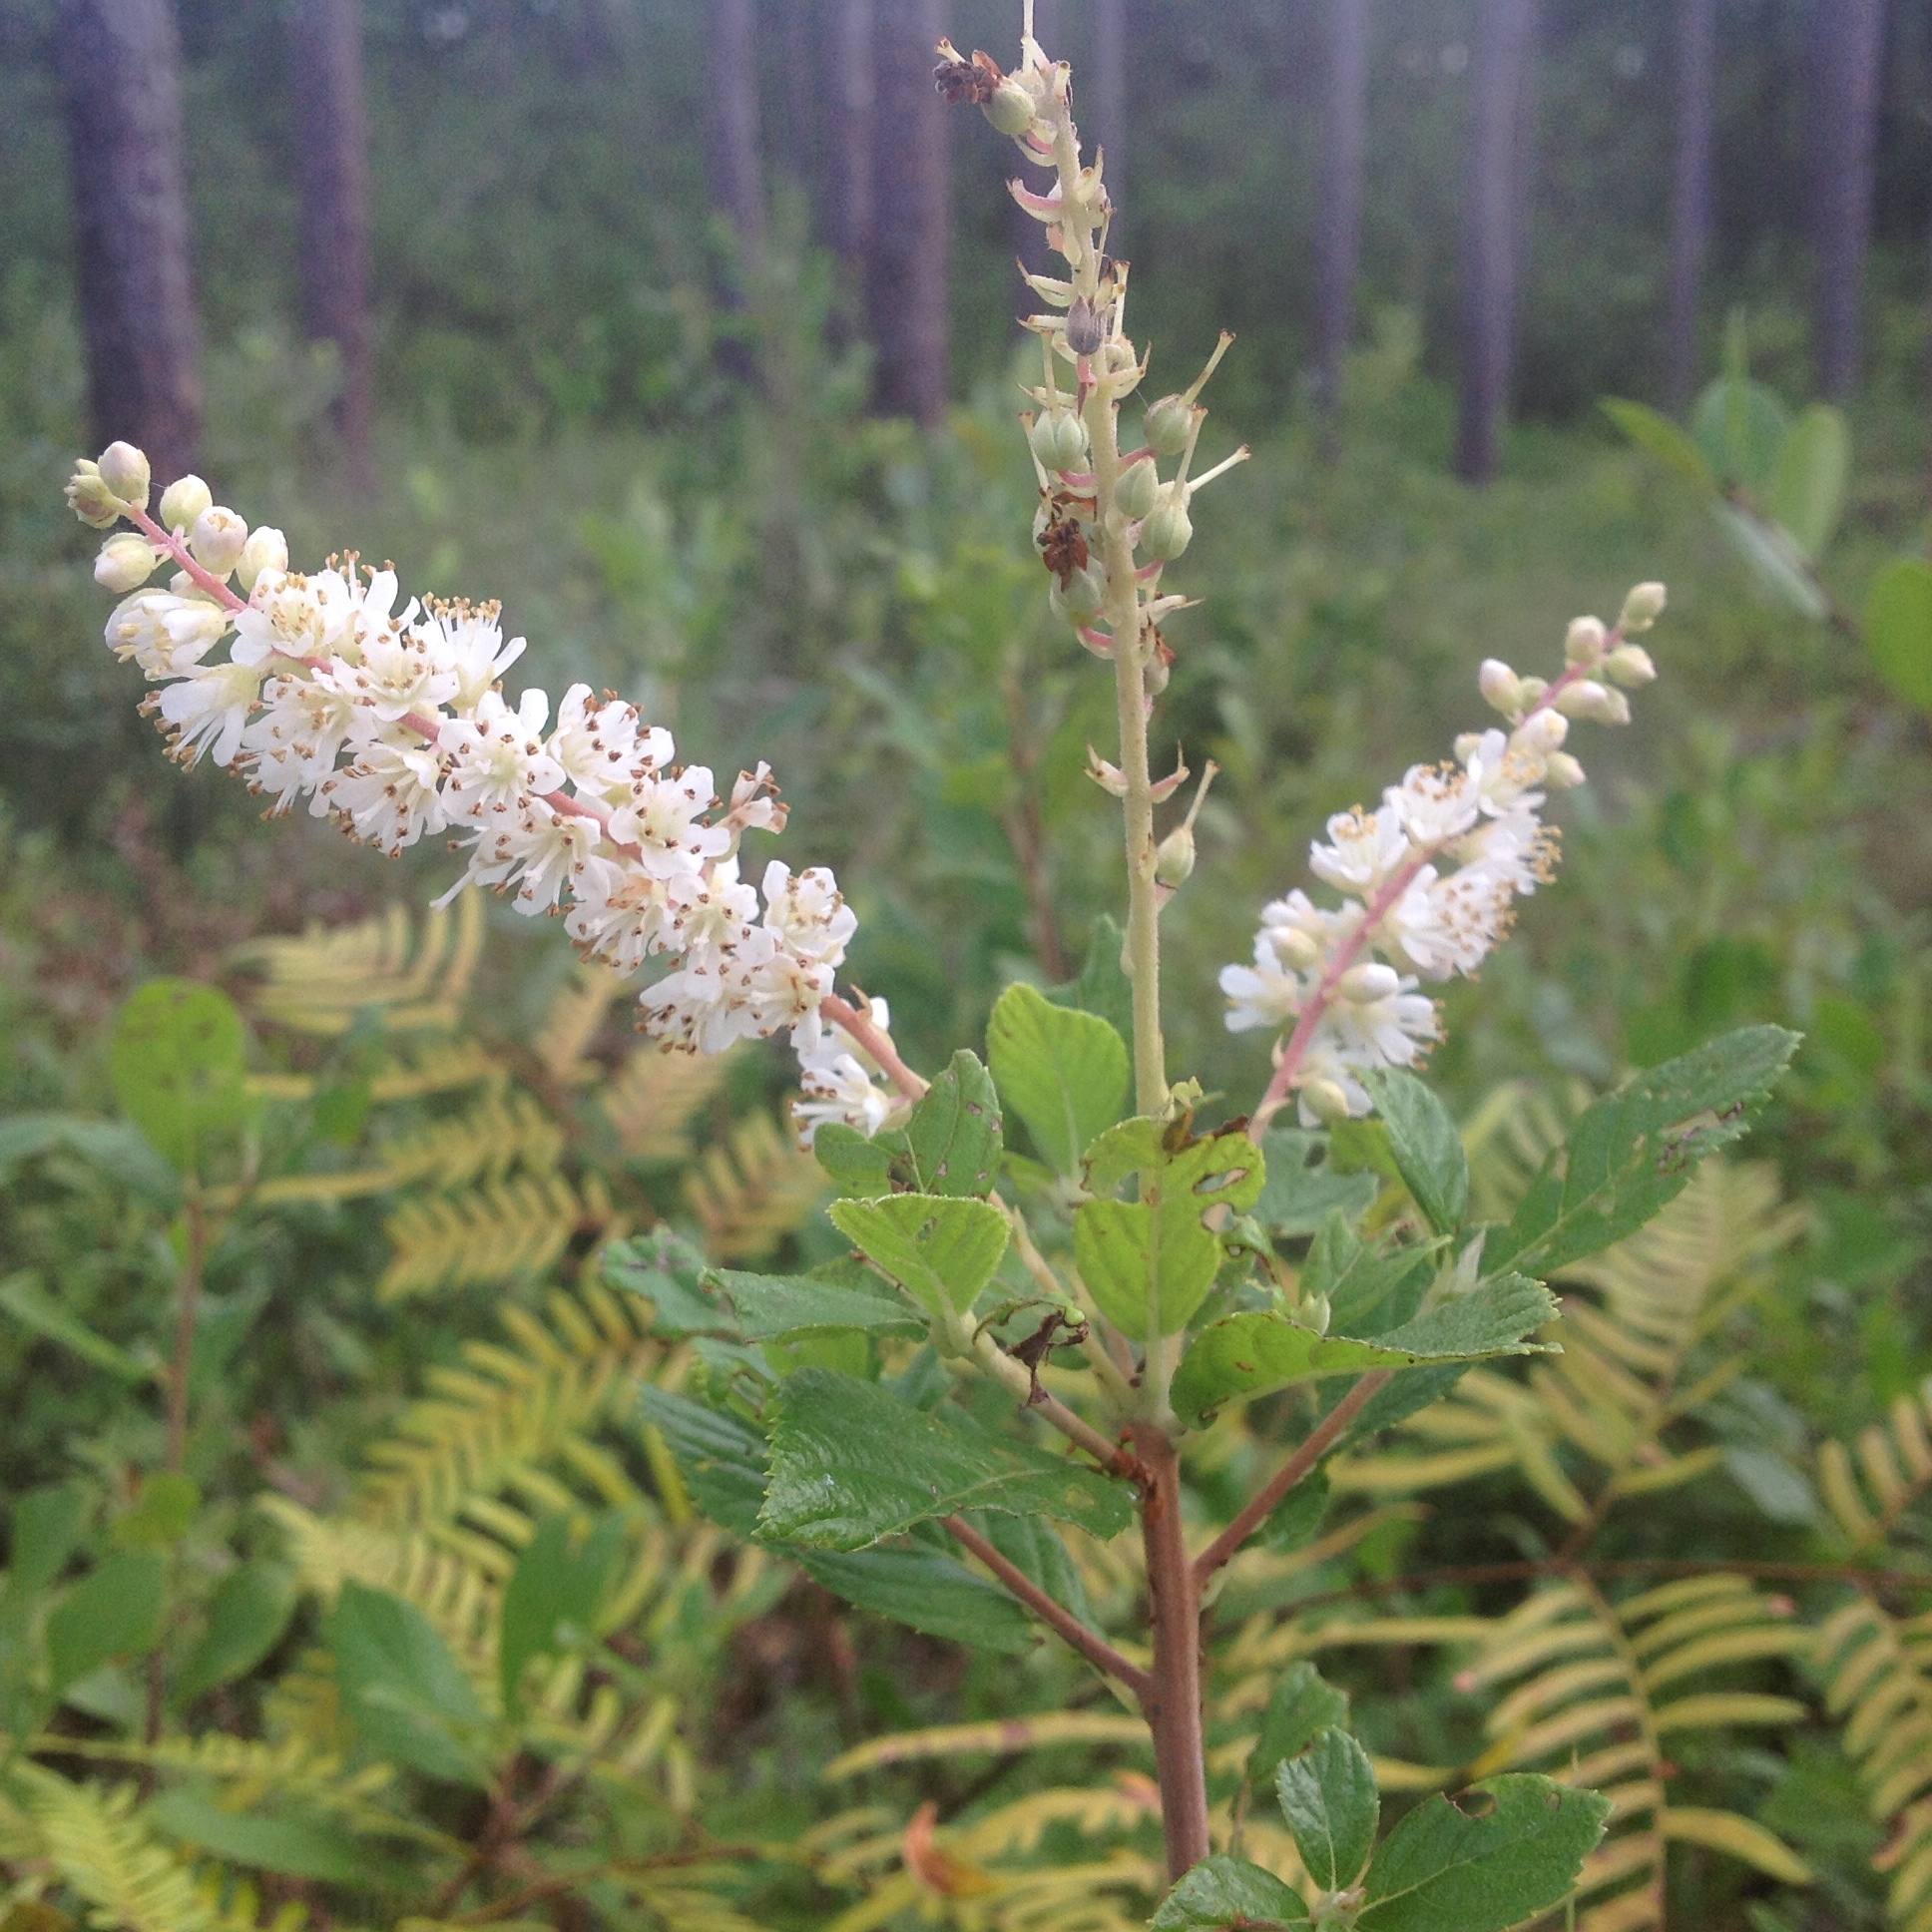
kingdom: Plantae
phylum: Tracheophyta
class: Magnoliopsida
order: Ericales
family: Clethraceae
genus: Clethra
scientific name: Clethra alnifolia
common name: Sweet pepperbush
